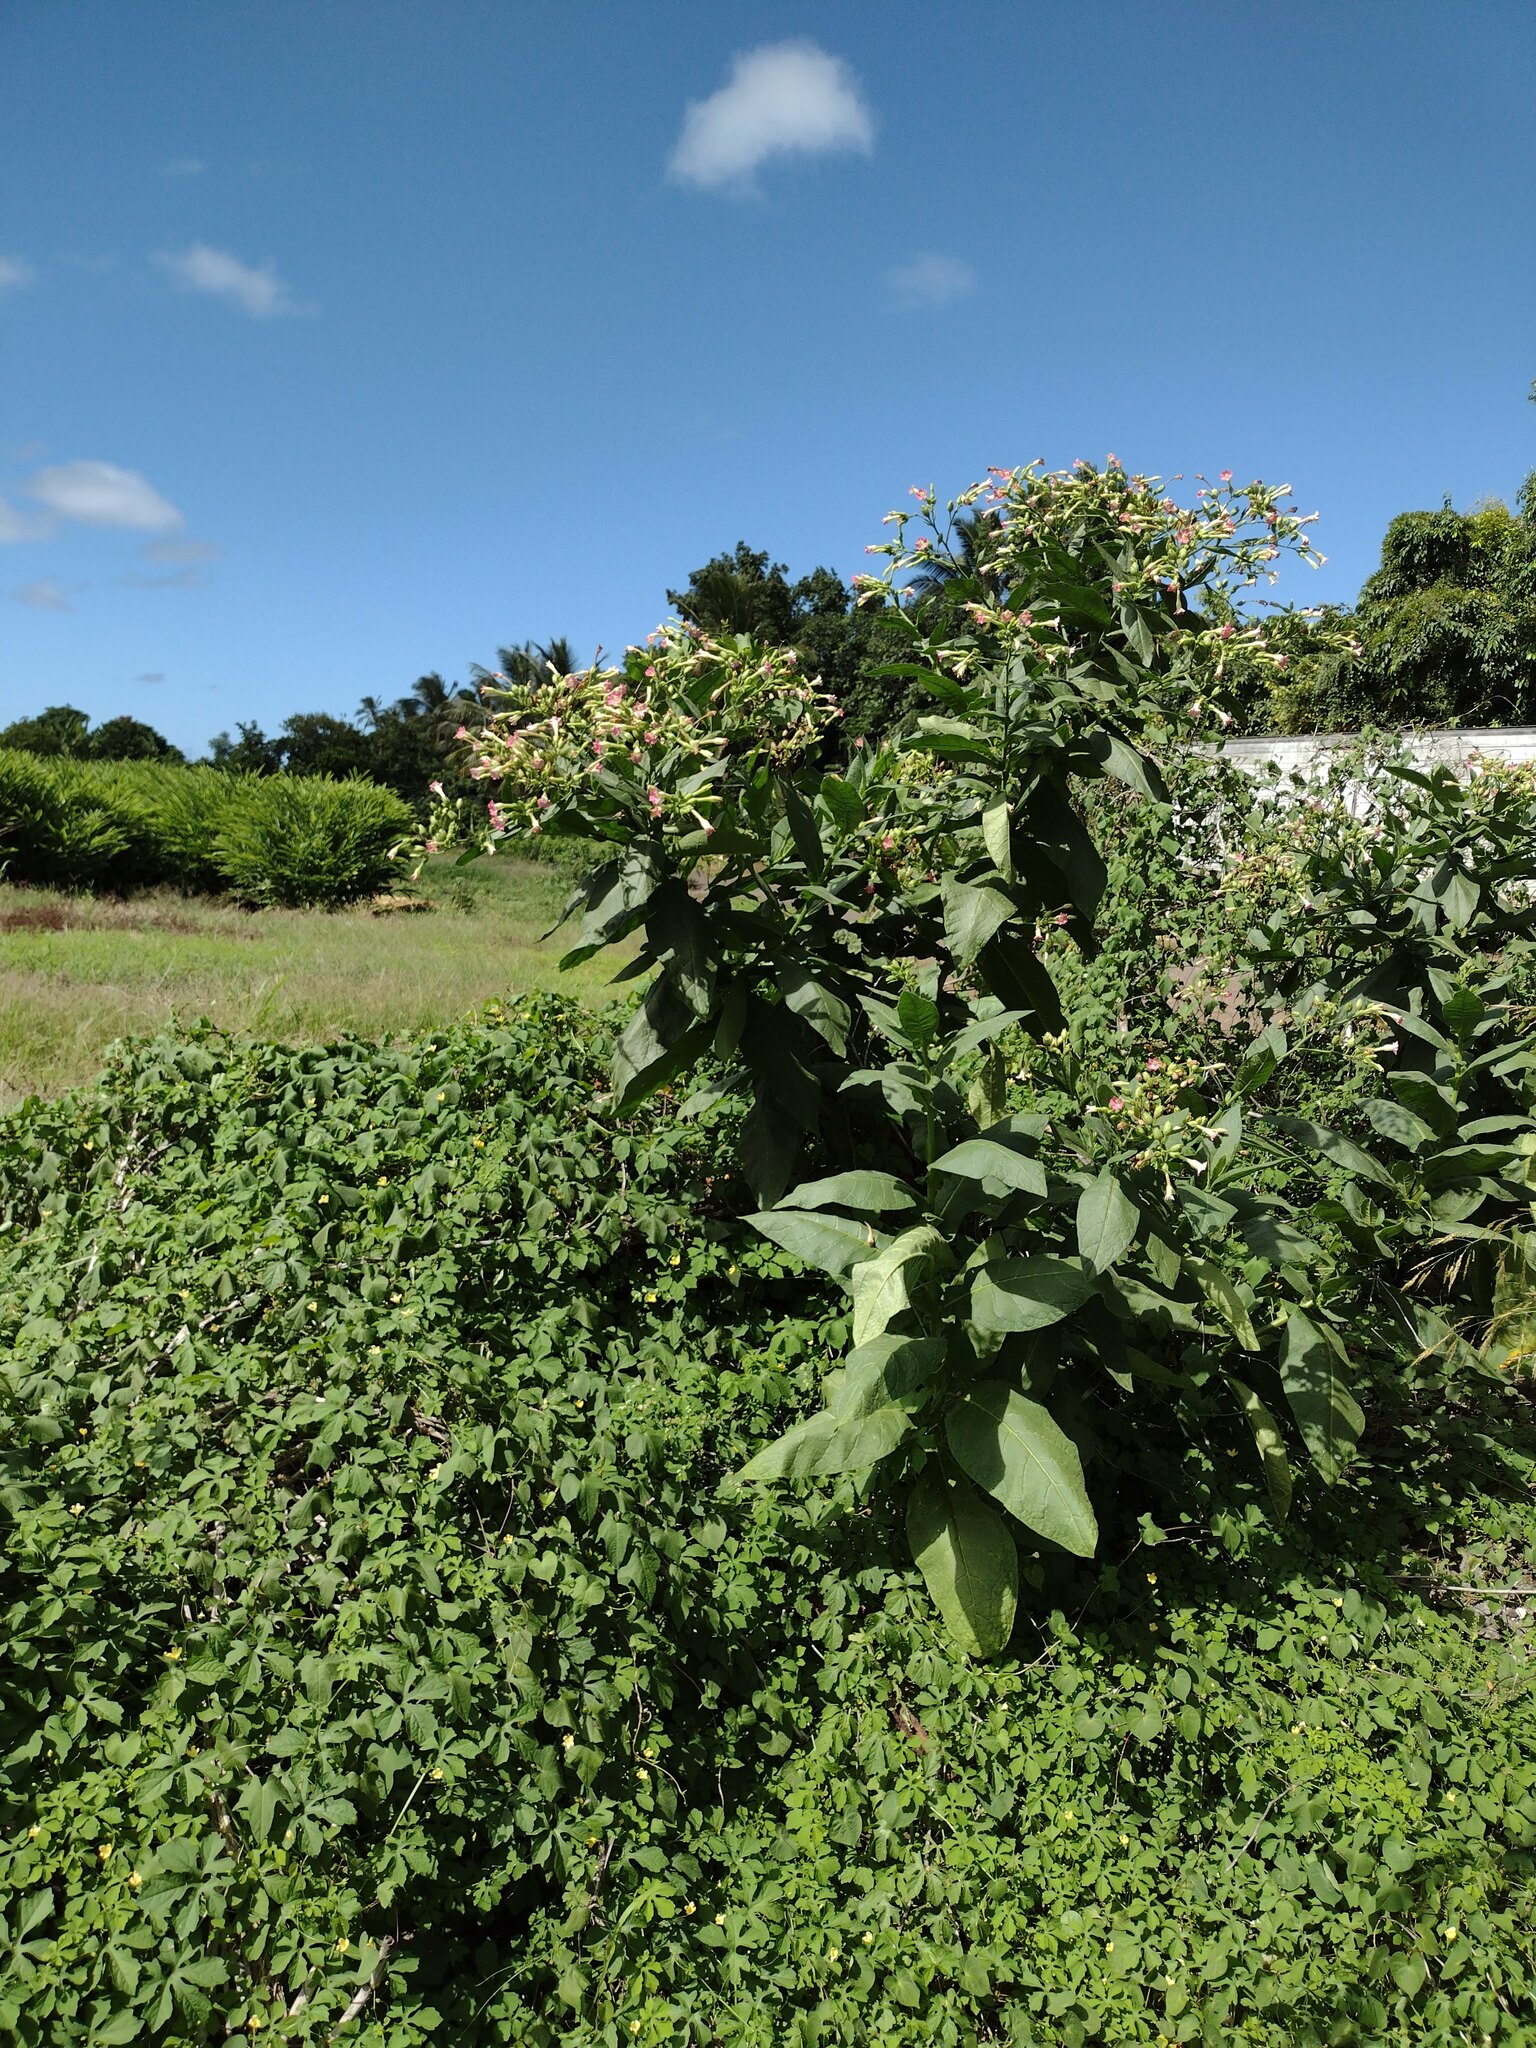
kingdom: Plantae
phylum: Tracheophyta
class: Magnoliopsida
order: Solanales
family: Solanaceae
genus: Nicotiana
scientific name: Nicotiana tabacum
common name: Tobacco
